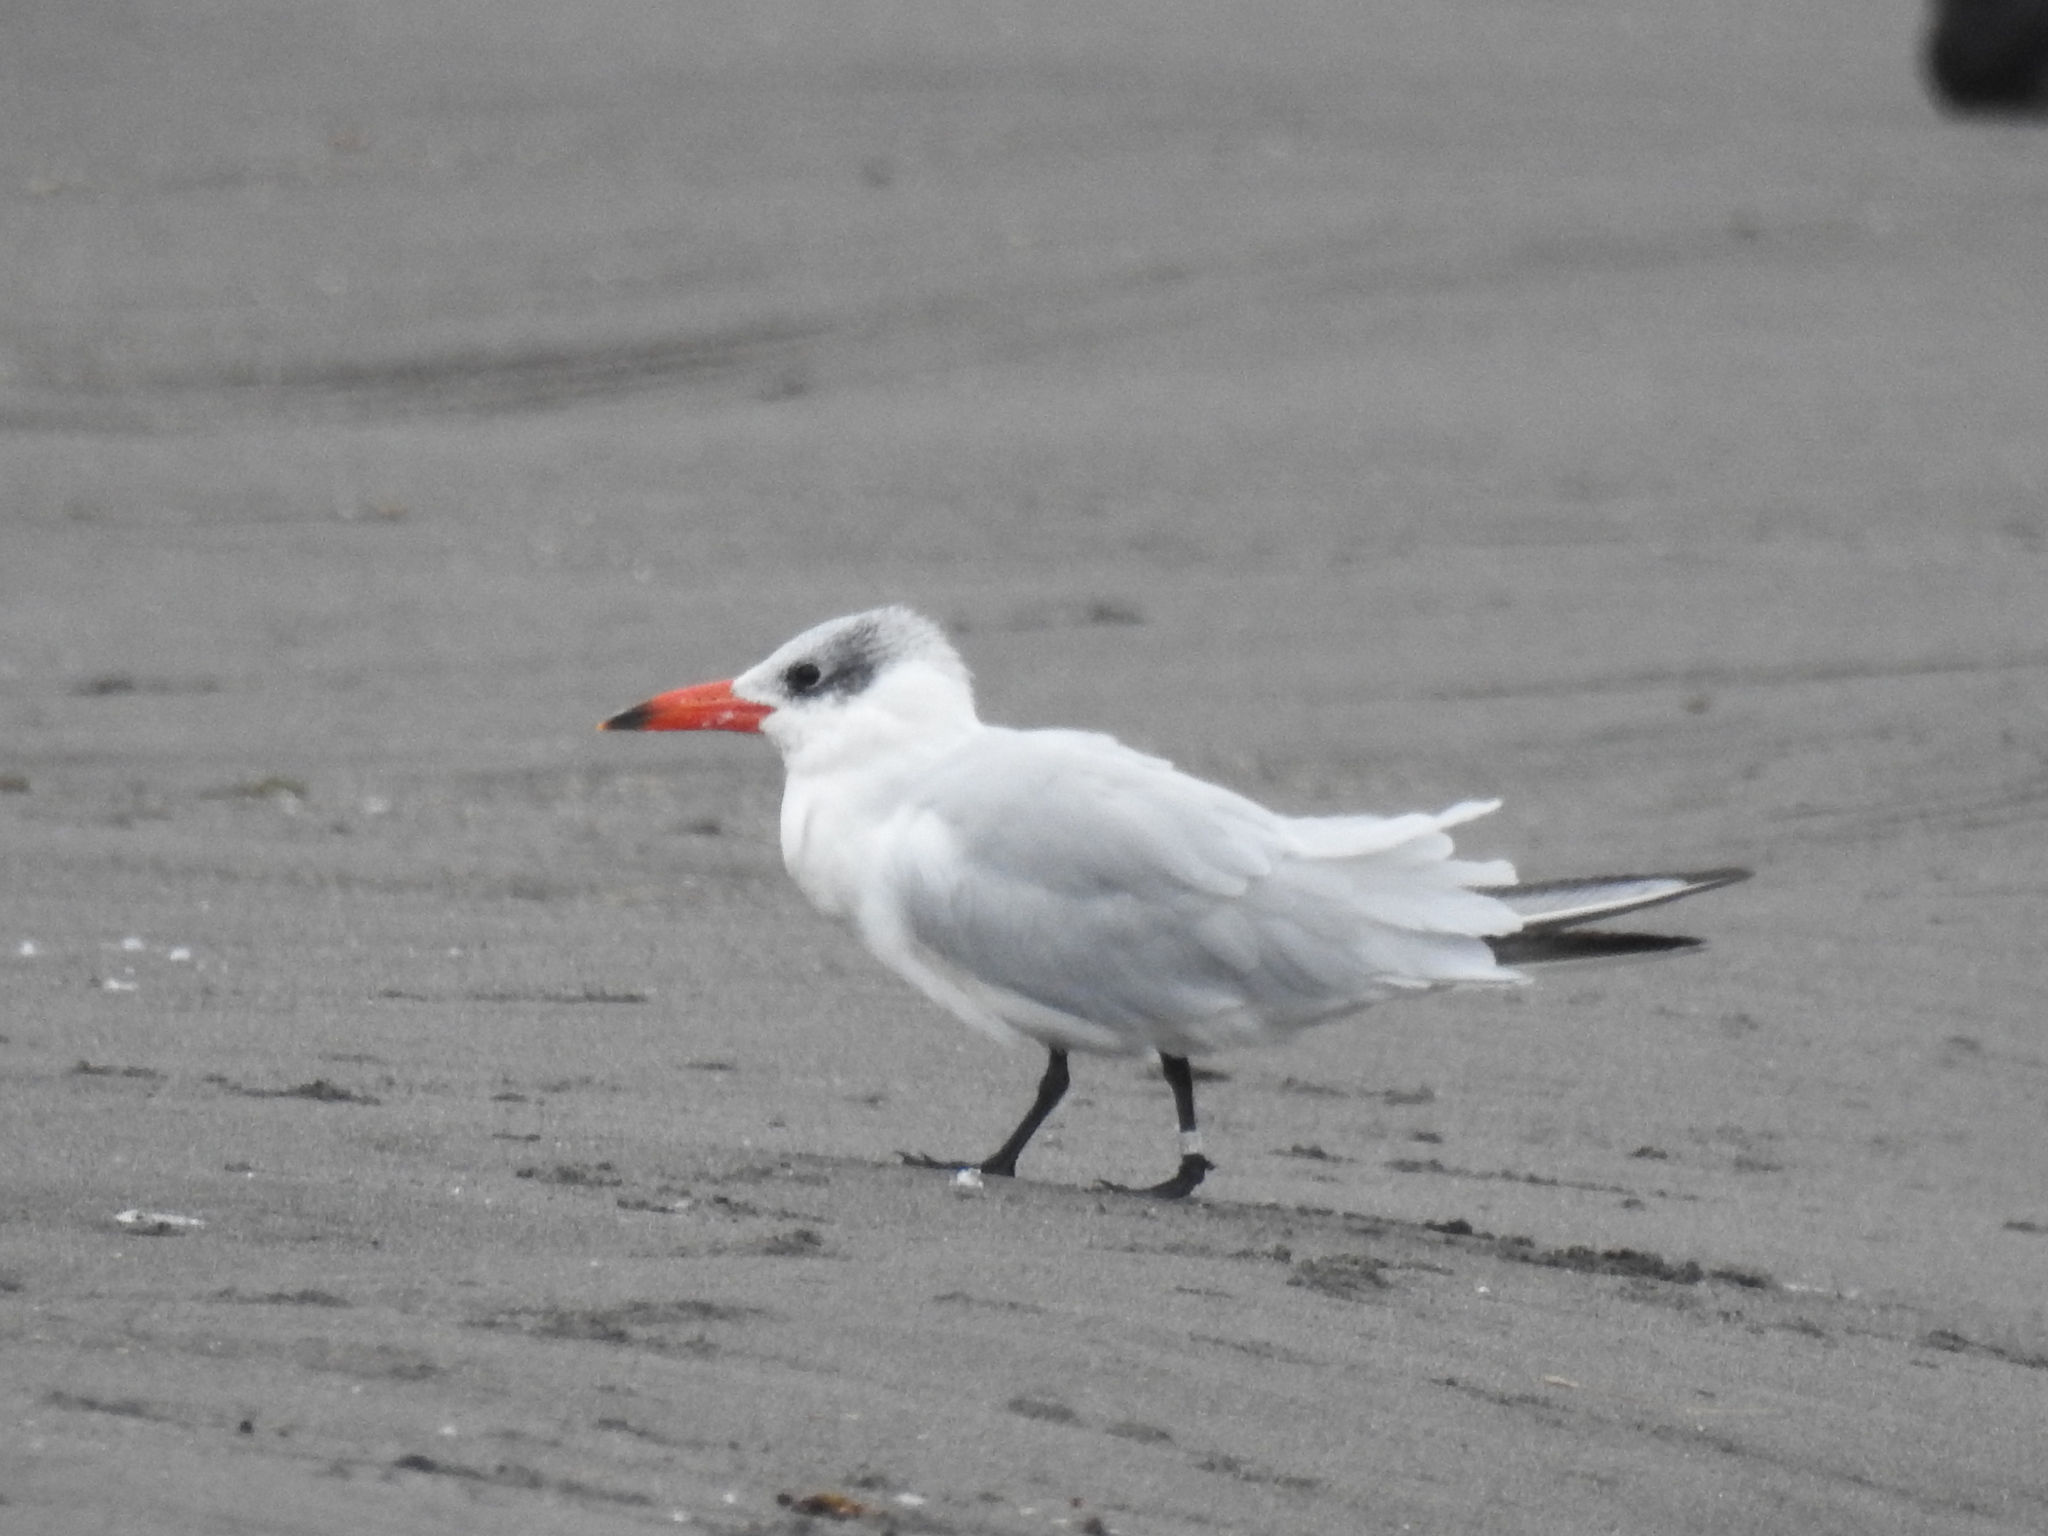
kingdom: Animalia
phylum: Chordata
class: Aves
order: Charadriiformes
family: Laridae
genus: Hydroprogne
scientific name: Hydroprogne caspia
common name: Caspian tern
